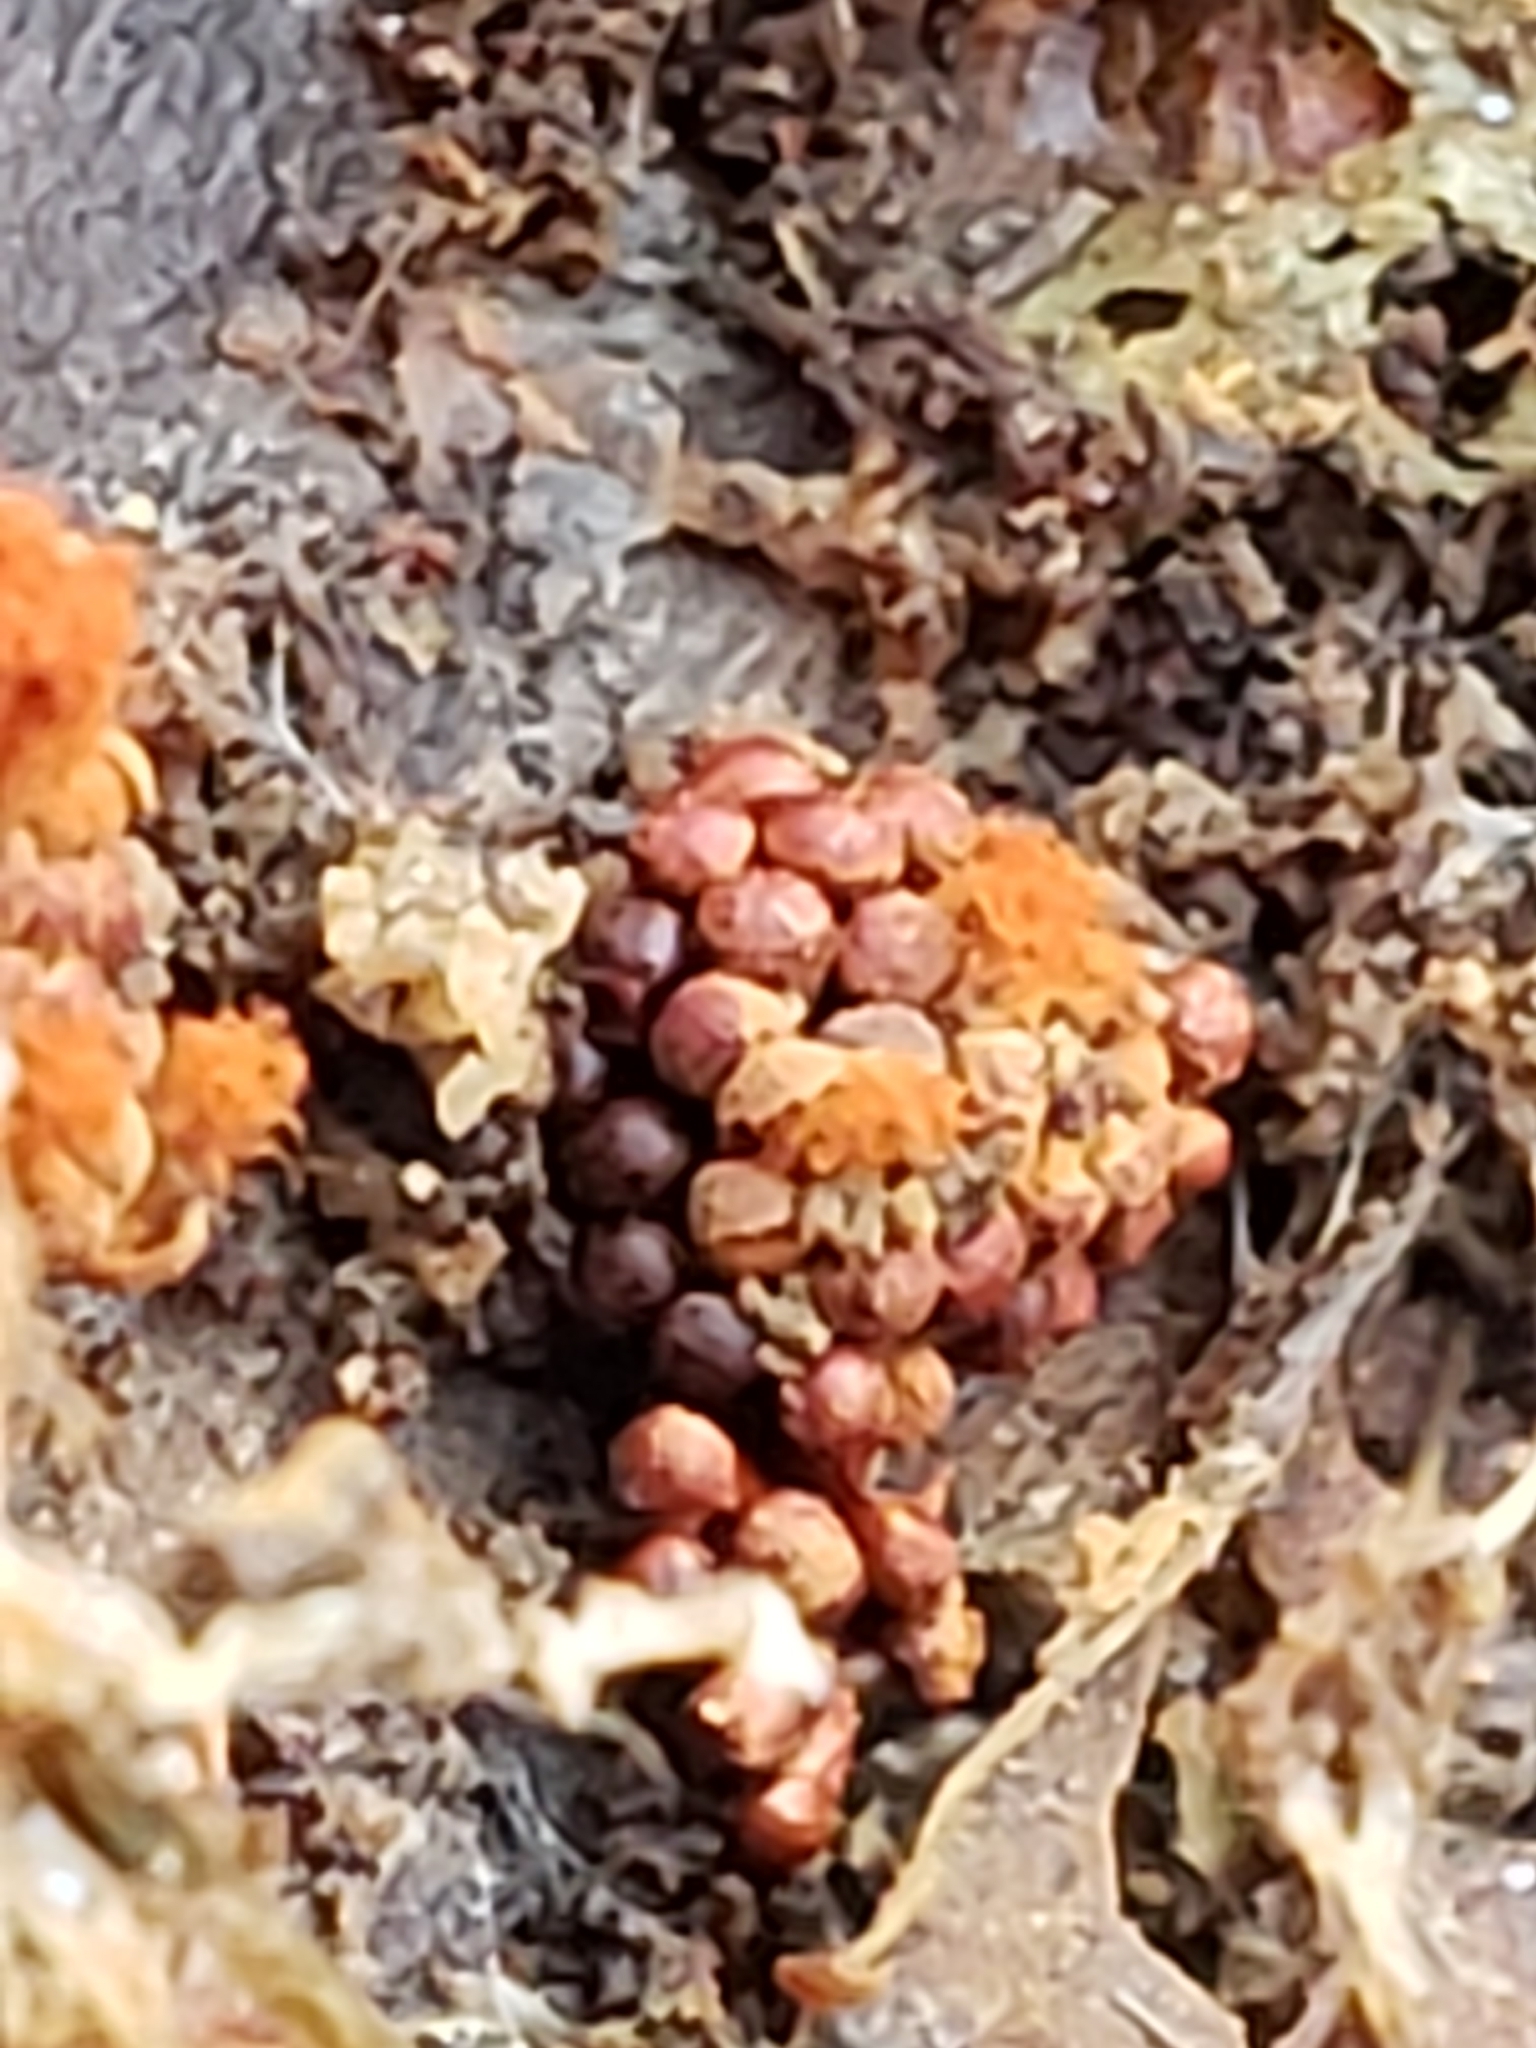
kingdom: Protozoa
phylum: Mycetozoa
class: Myxomycetes
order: Trichiales
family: Trichiaceae
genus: Metatrichia
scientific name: Metatrichia vesparia
